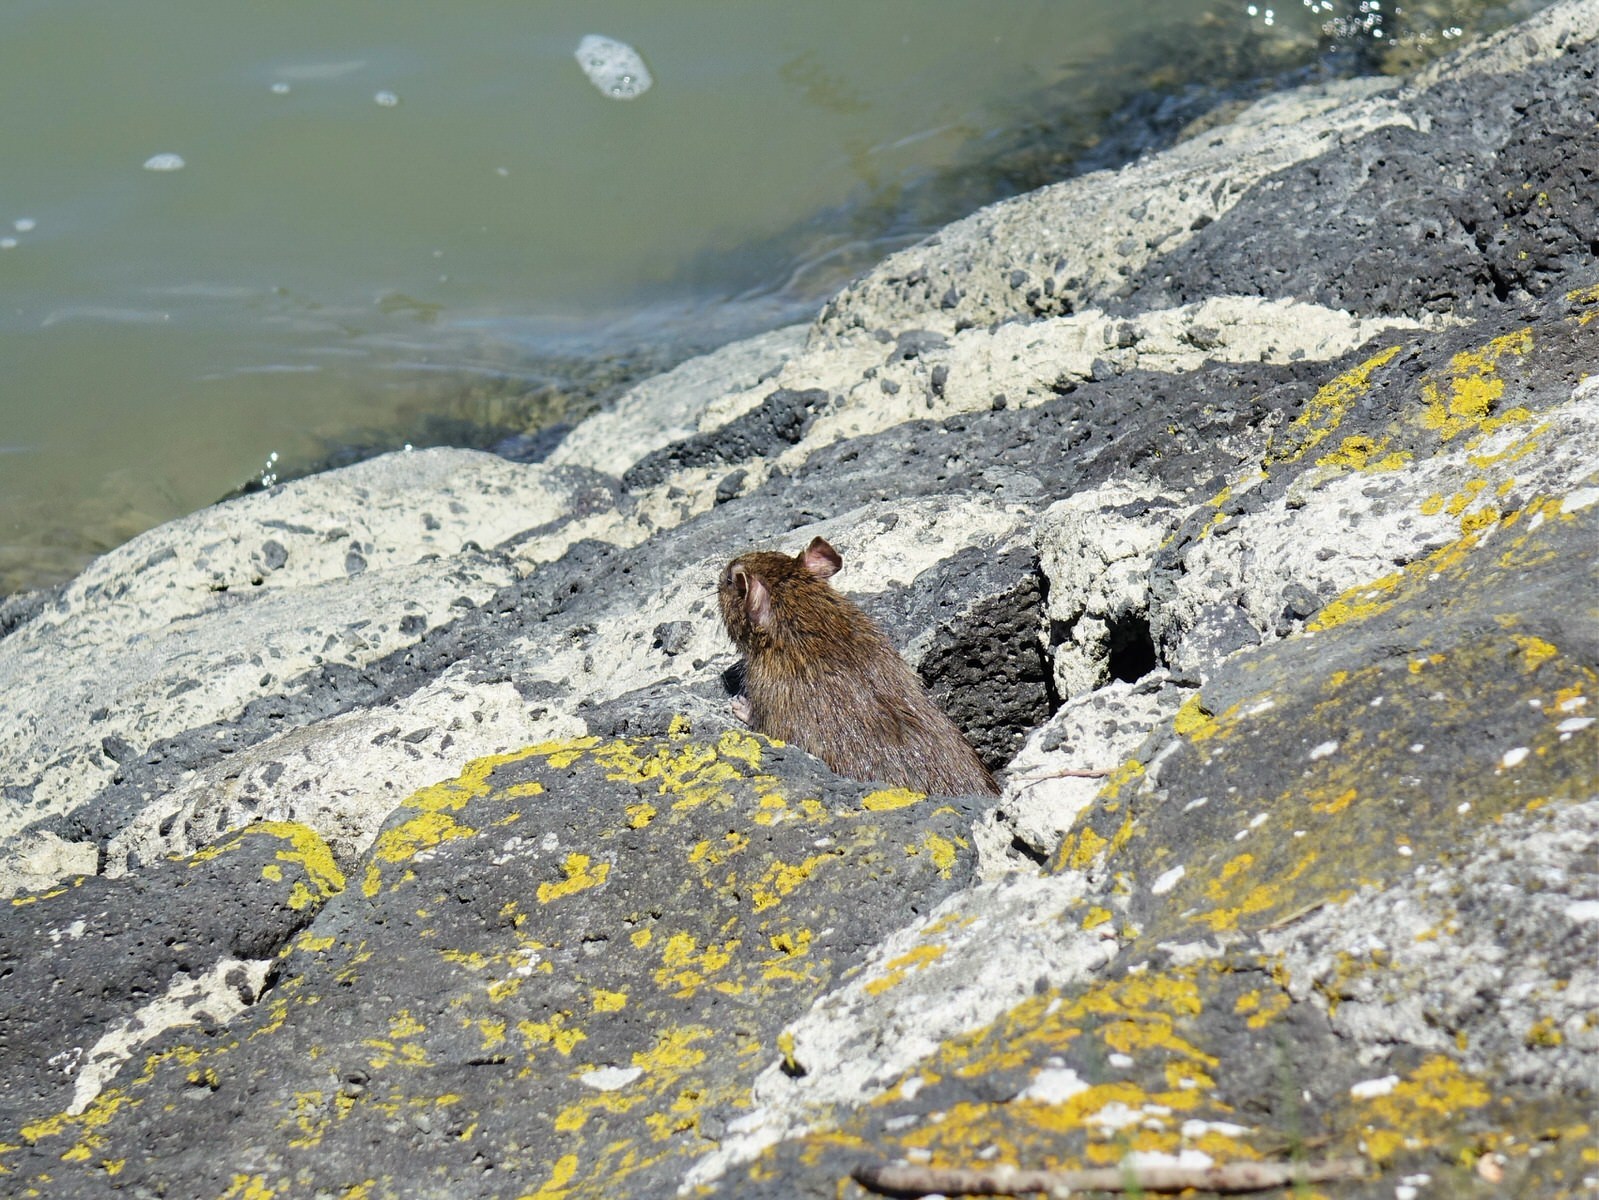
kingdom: Animalia
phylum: Chordata
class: Mammalia
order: Rodentia
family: Muridae
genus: Rattus
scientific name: Rattus norvegicus
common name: Brown rat
